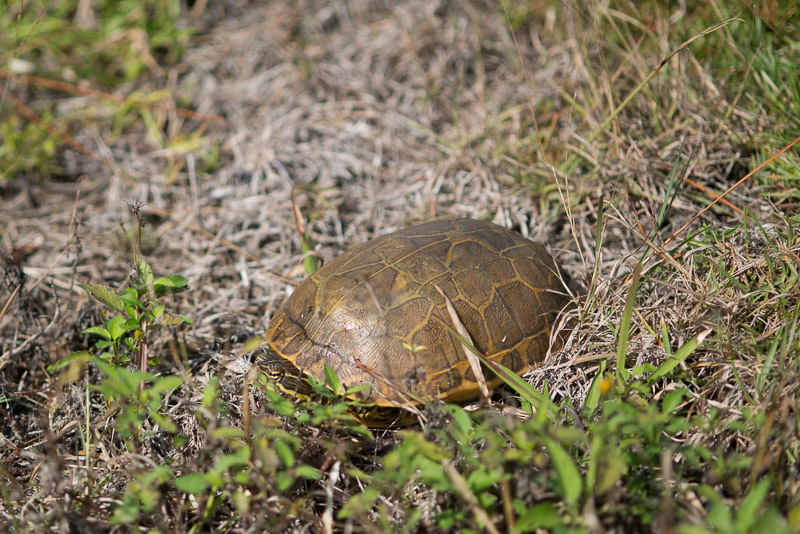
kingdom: Animalia
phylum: Chordata
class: Testudines
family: Emydidae
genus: Deirochelys
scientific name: Deirochelys reticularia
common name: Chicken turtle
